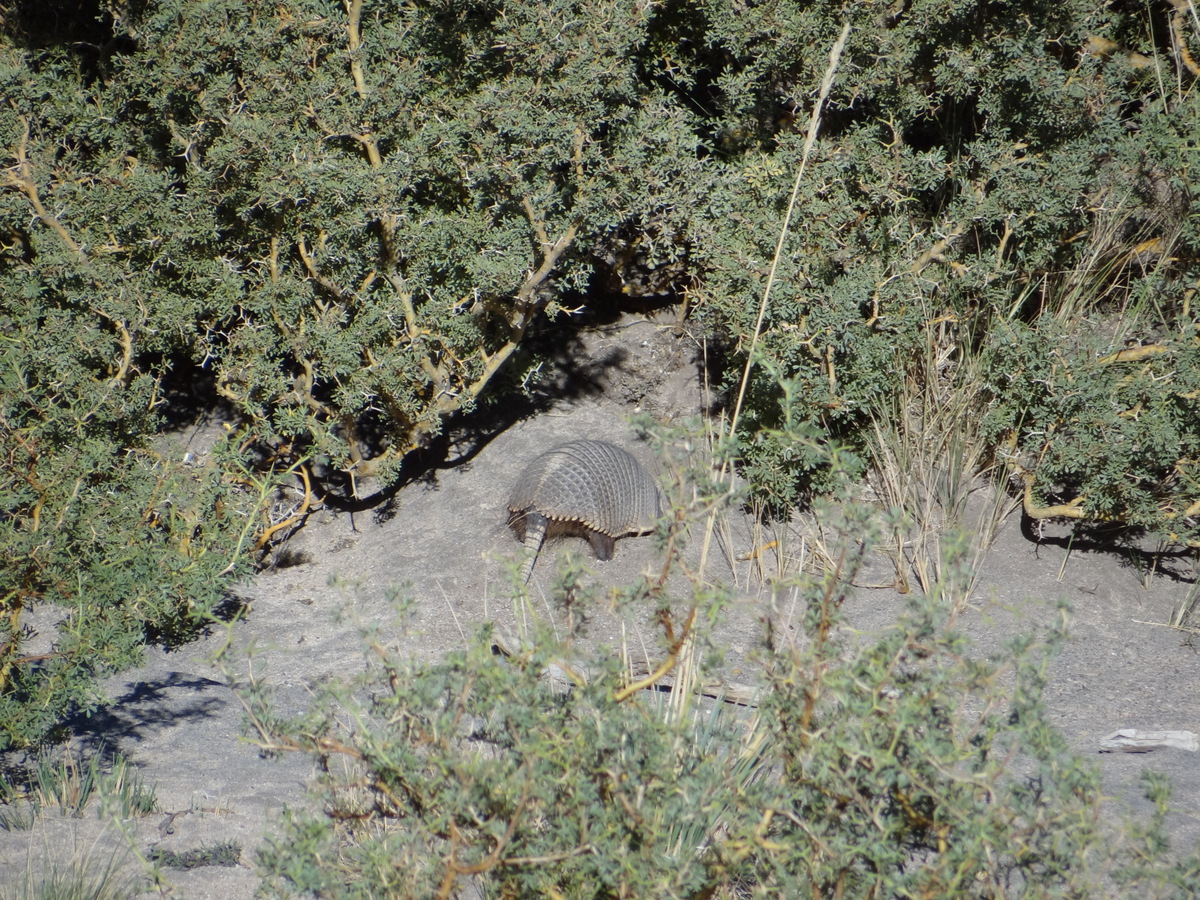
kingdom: Animalia
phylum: Chordata
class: Mammalia
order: Cingulata
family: Dasypodidae
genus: Zaedyus
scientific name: Zaedyus pichiy
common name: Pichi
